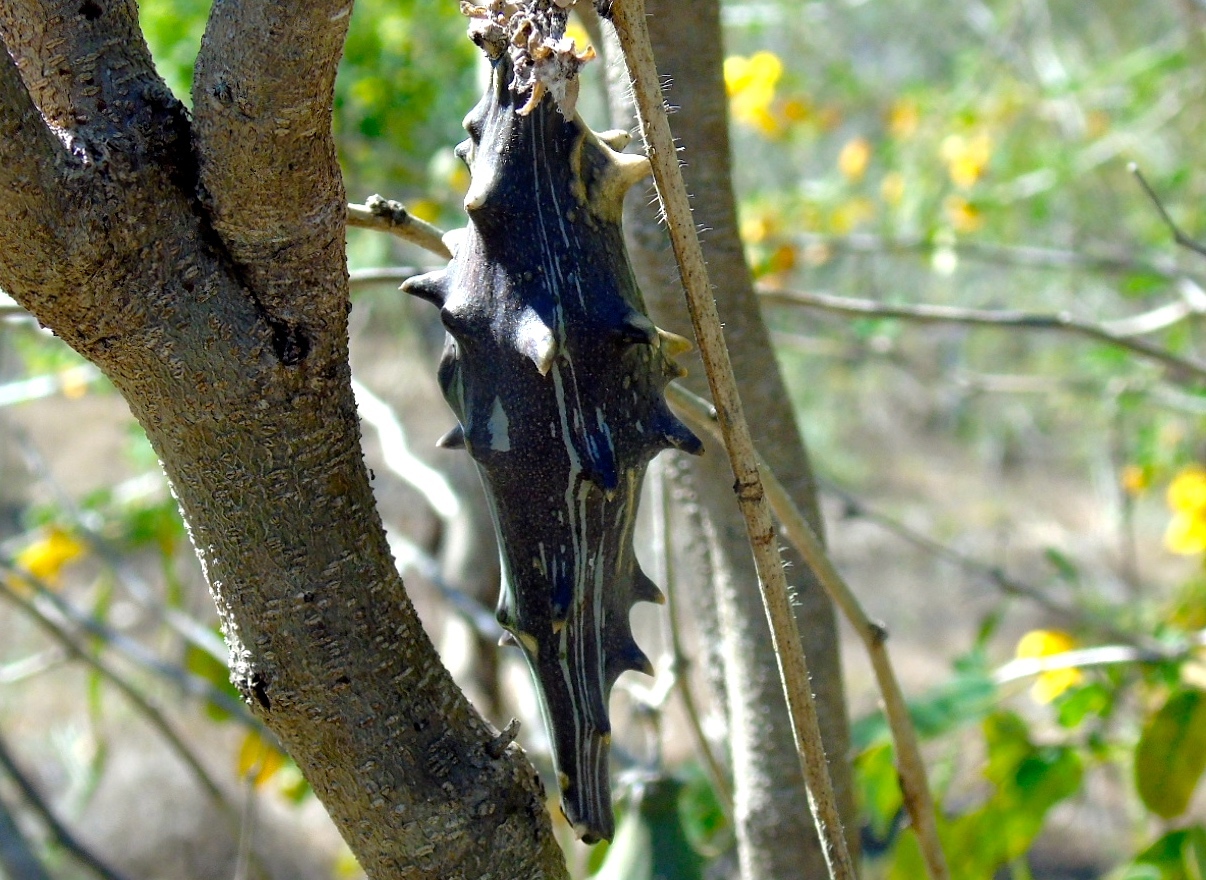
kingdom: Plantae
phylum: Tracheophyta
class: Magnoliopsida
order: Gentianales
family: Apocynaceae
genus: Dictyanthus
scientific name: Dictyanthus
